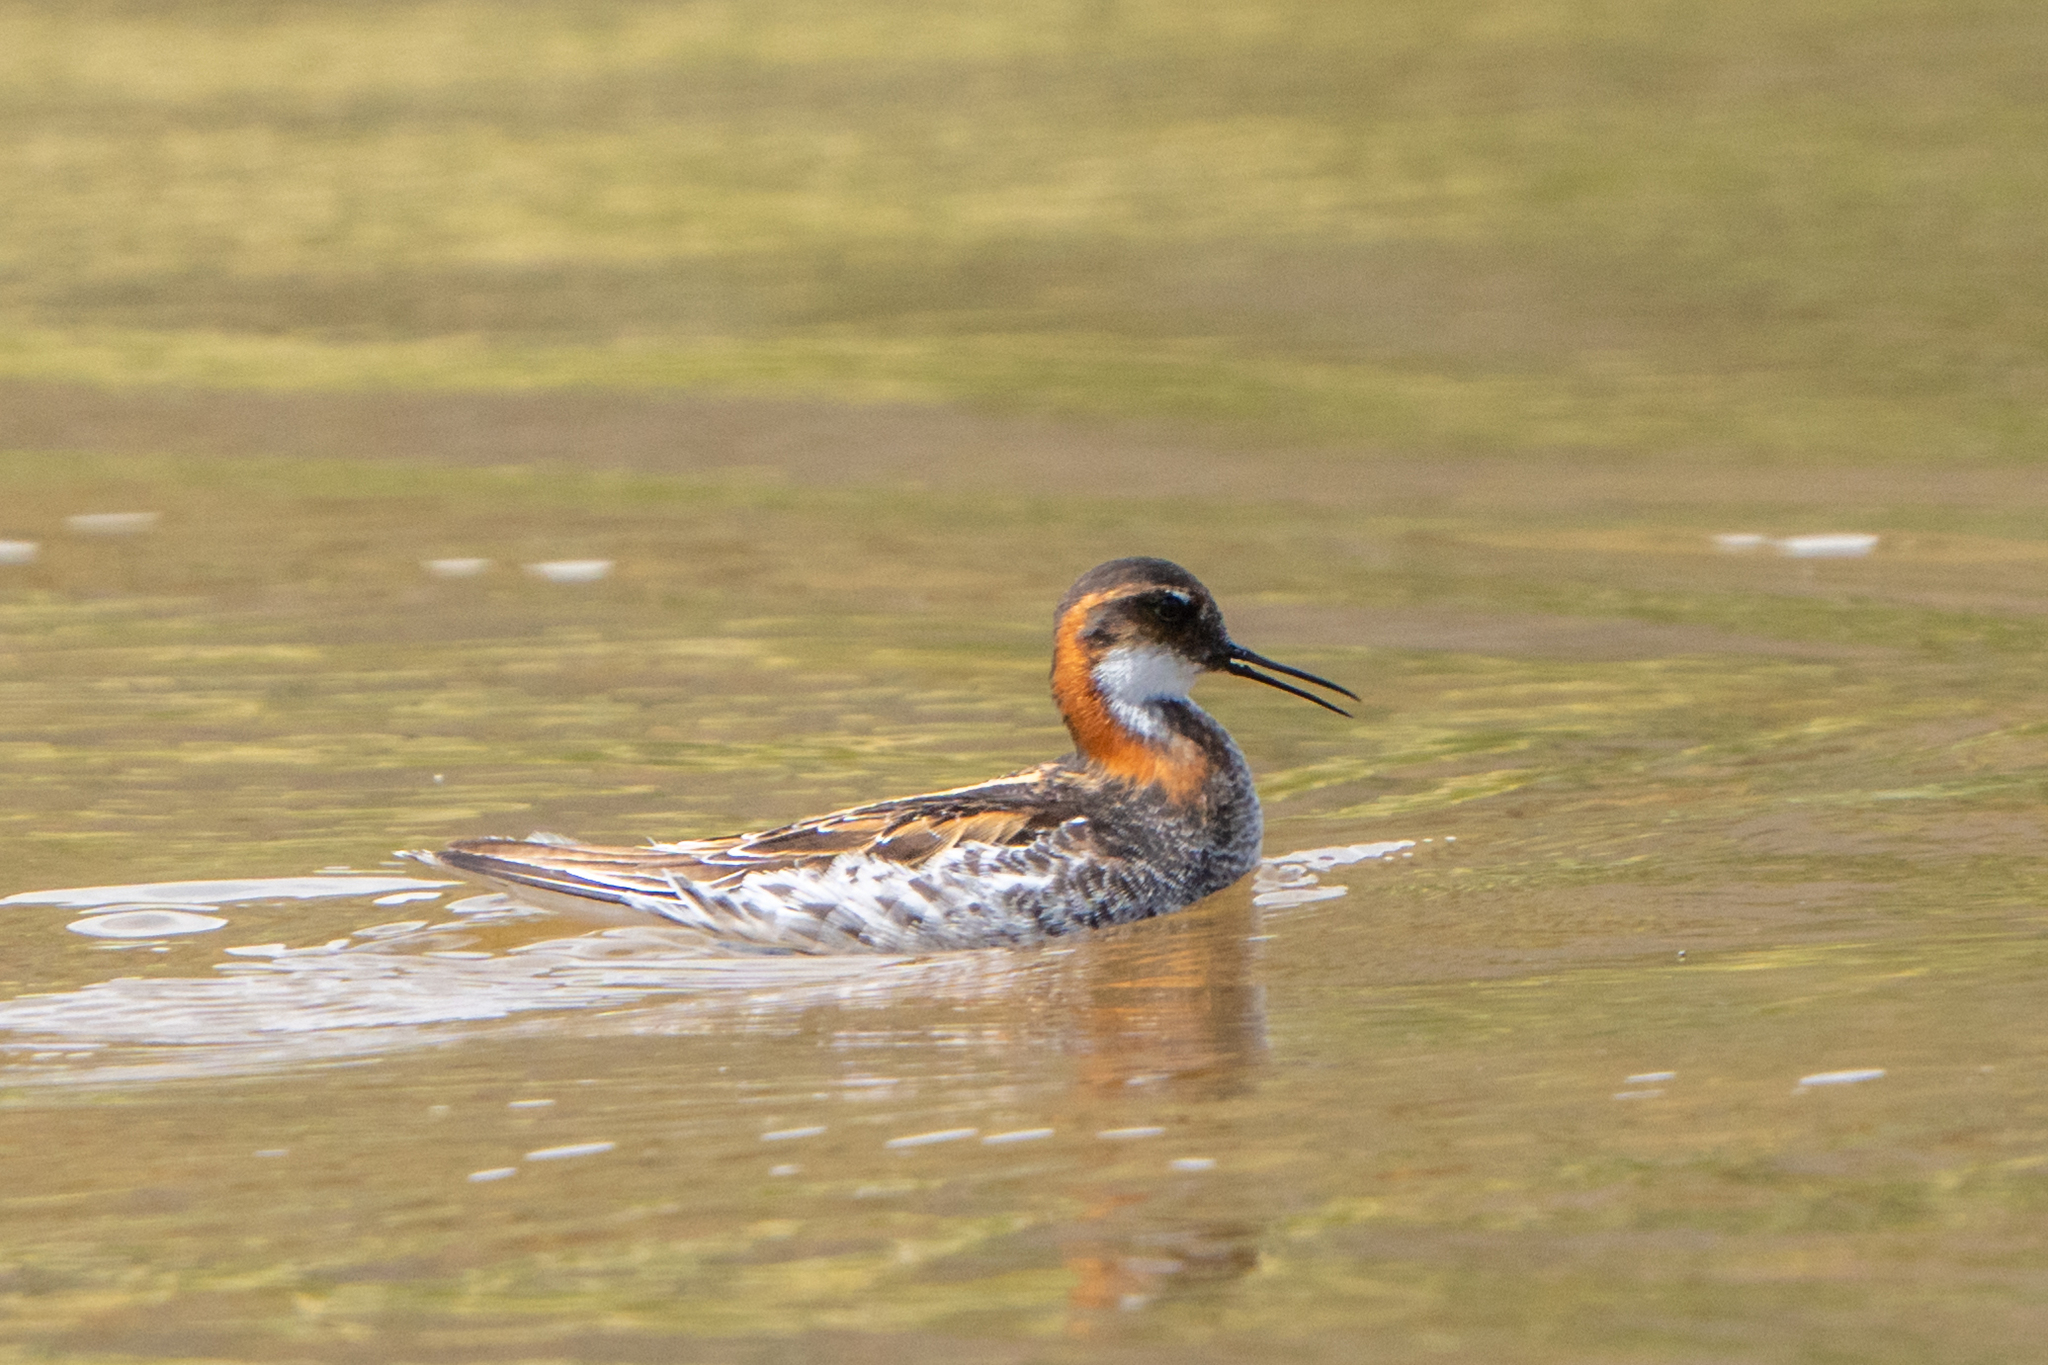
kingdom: Animalia
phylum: Chordata
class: Aves
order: Charadriiformes
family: Scolopacidae
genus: Phalaropus
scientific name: Phalaropus lobatus
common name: Red-necked phalarope
